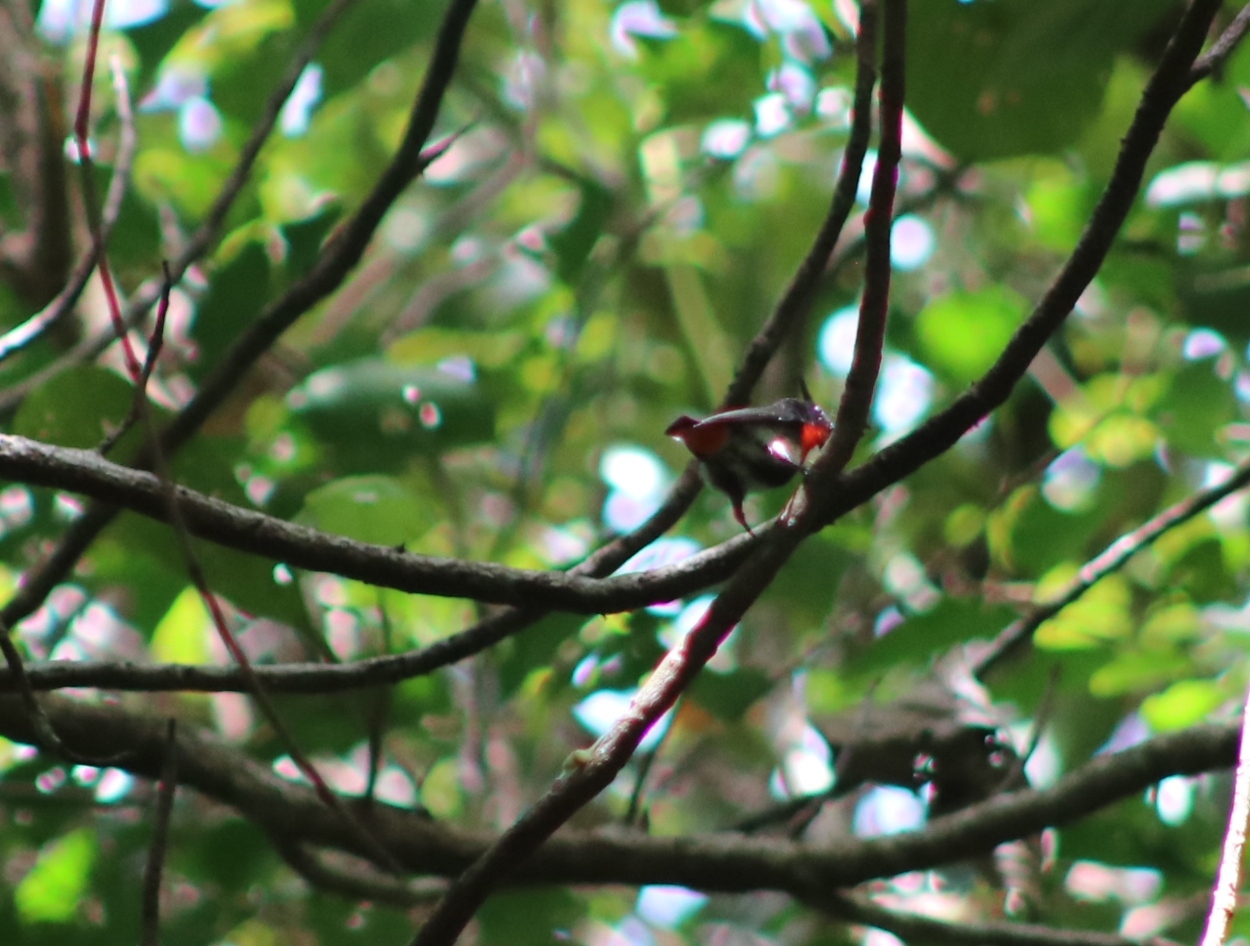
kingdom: Animalia
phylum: Chordata
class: Aves
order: Passeriformes
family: Dicaeidae
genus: Dicaeum
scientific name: Dicaeum hirundinaceum
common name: Mistletoebird
